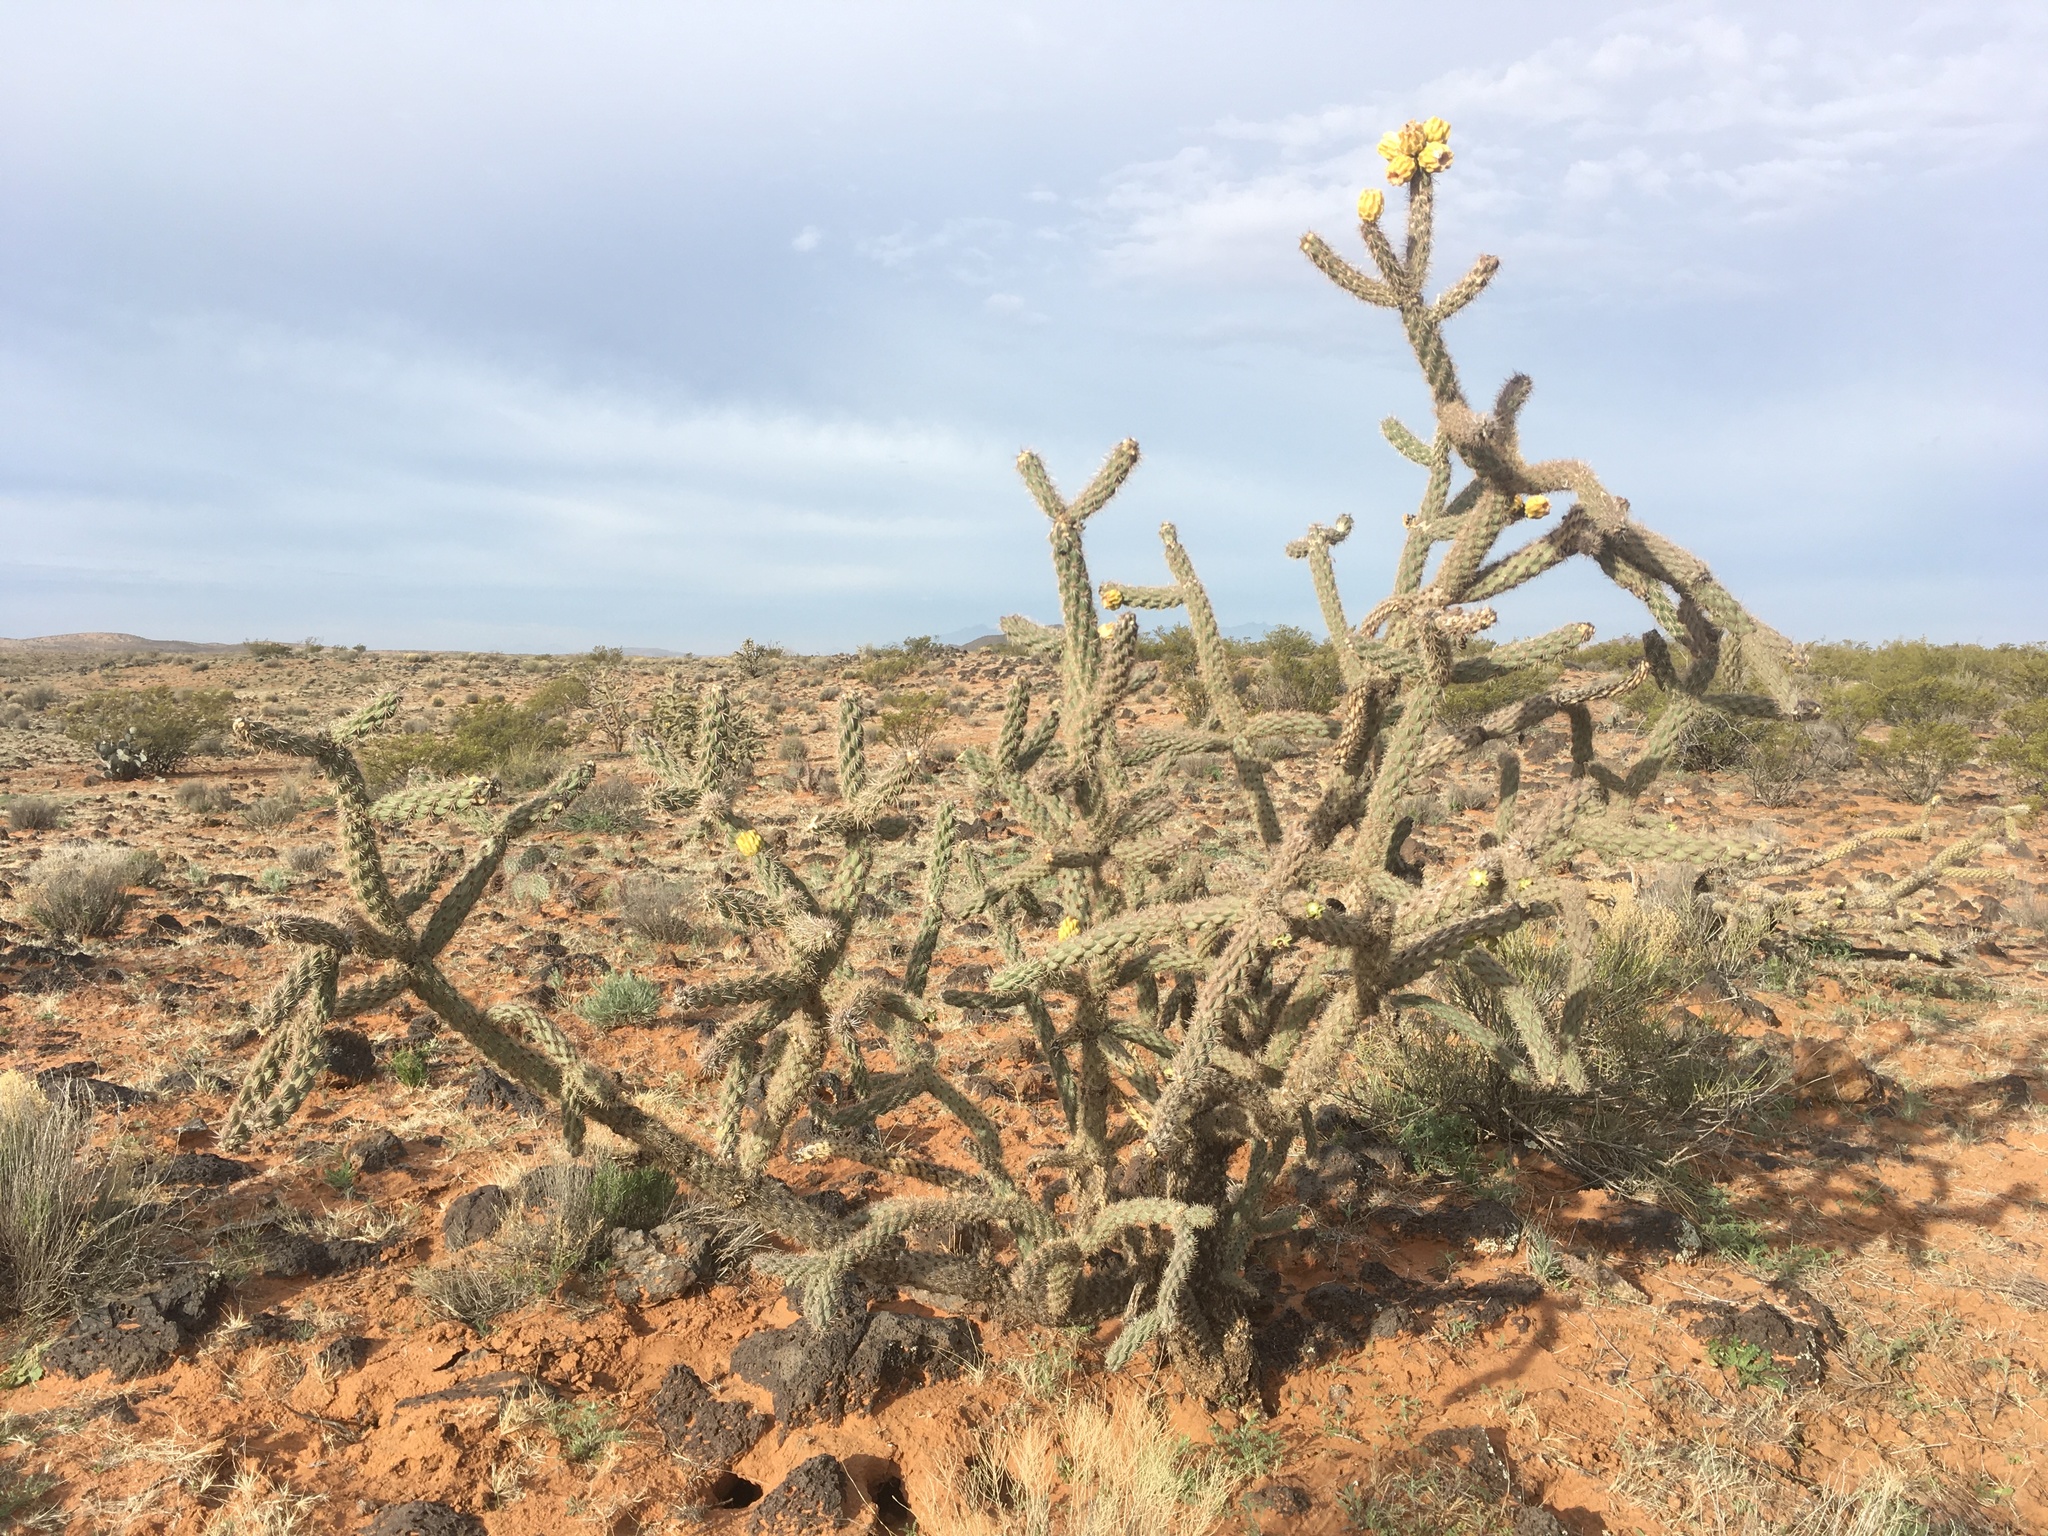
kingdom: Plantae
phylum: Tracheophyta
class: Magnoliopsida
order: Caryophyllales
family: Cactaceae
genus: Cylindropuntia
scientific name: Cylindropuntia imbricata
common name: Candelabrum cactus
